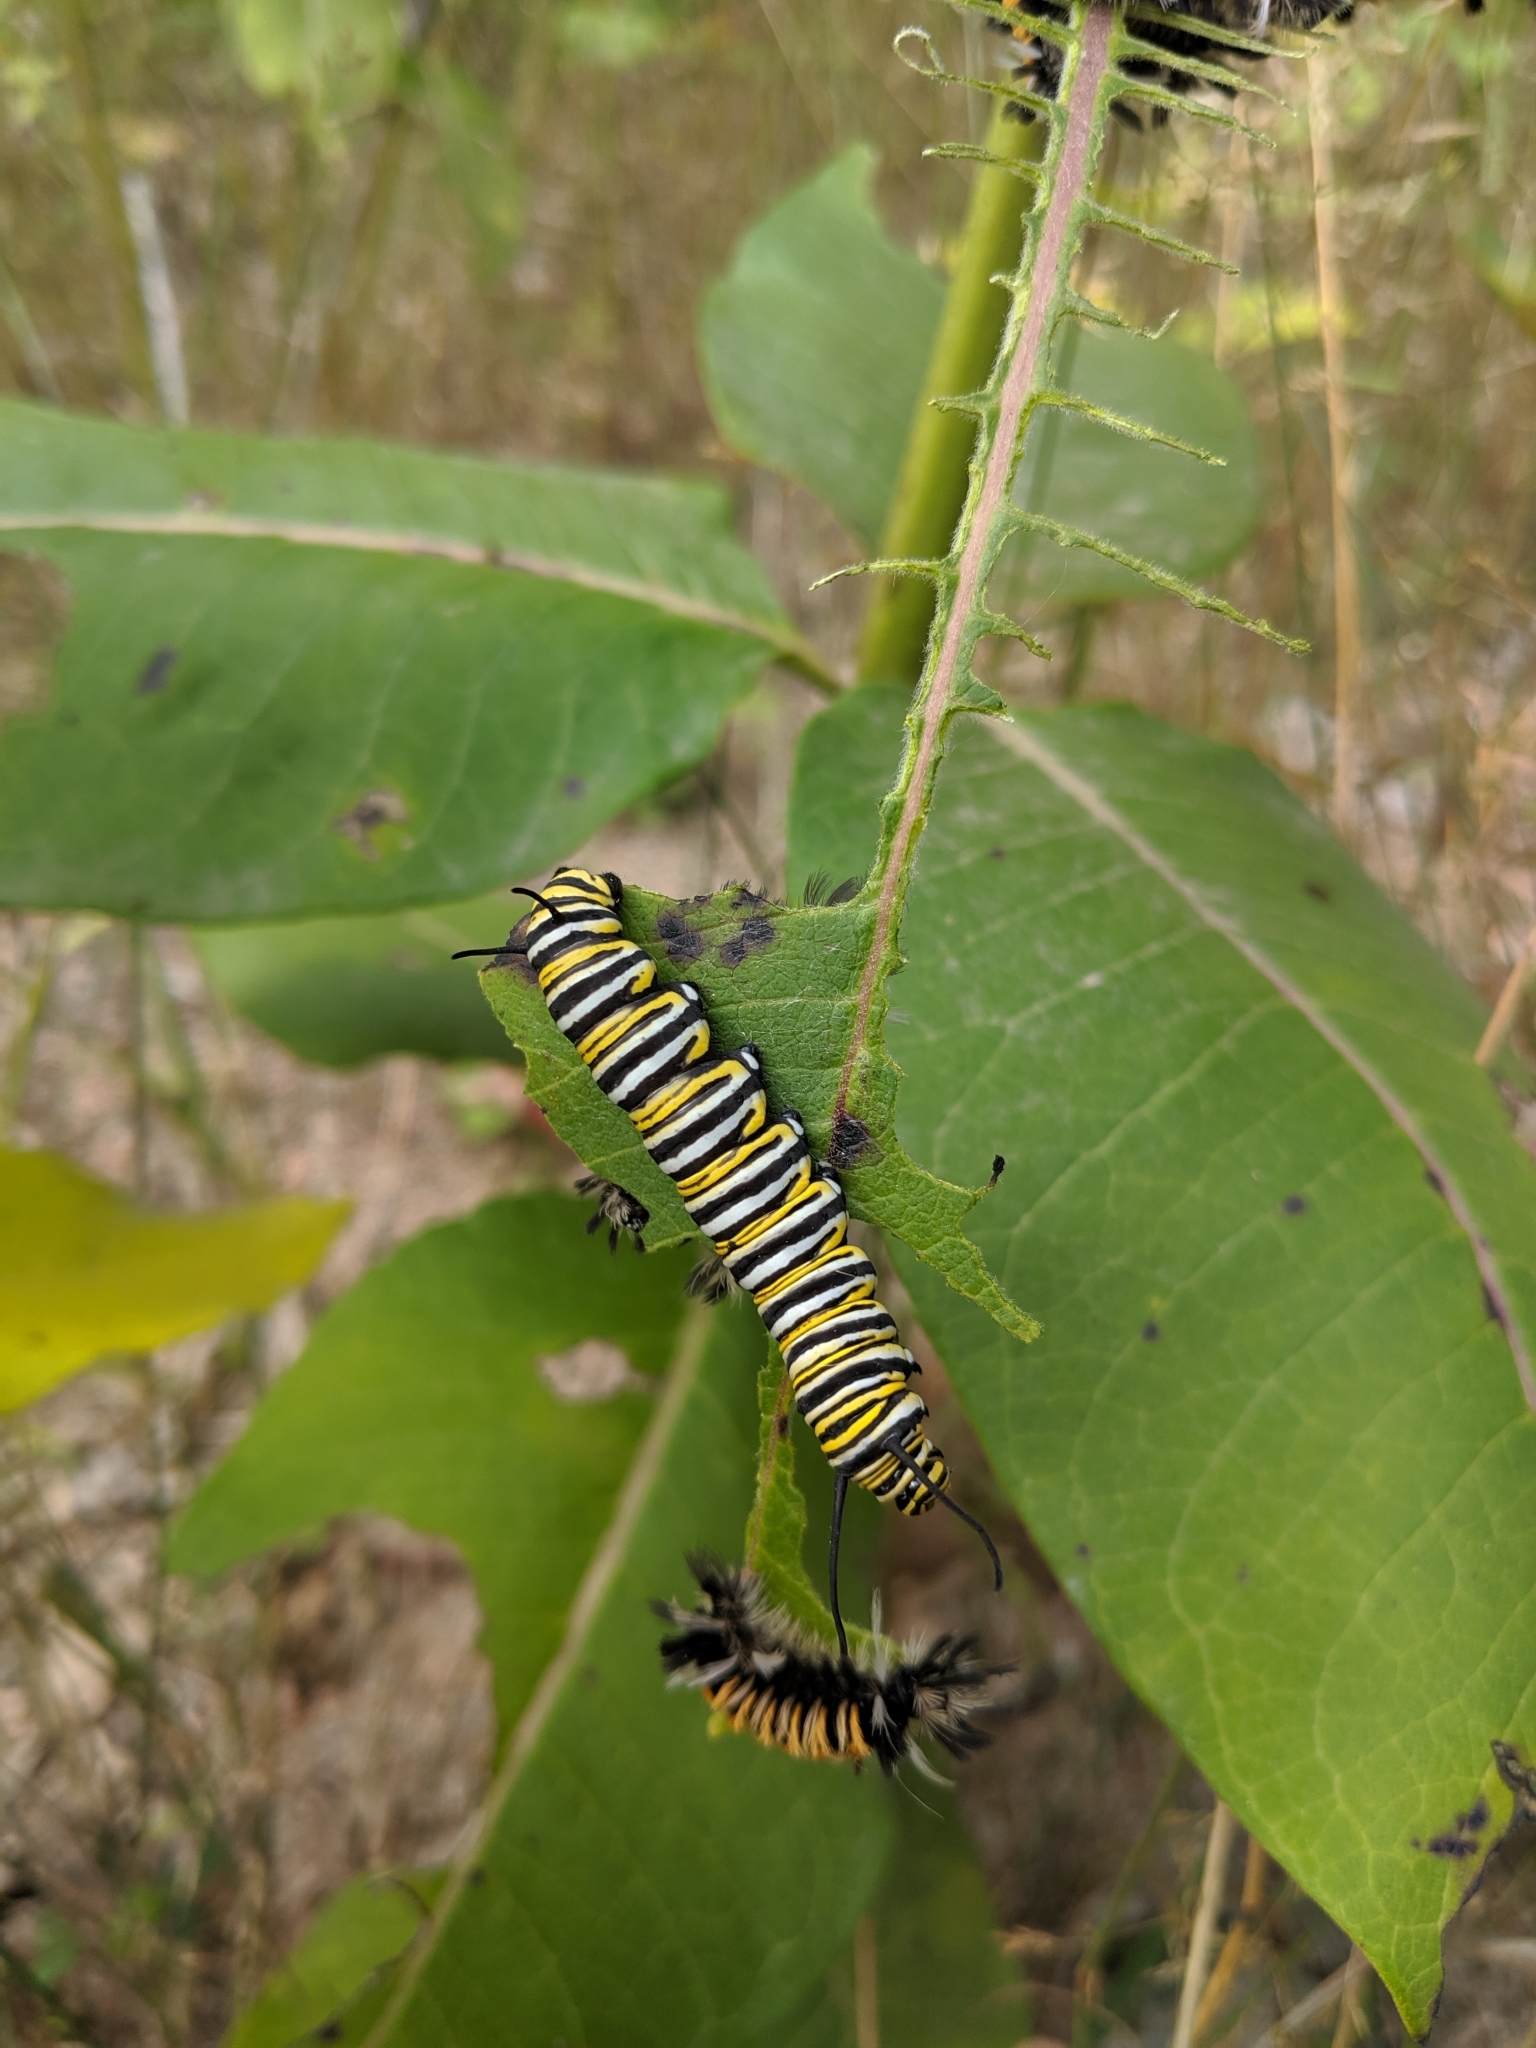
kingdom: Animalia
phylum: Arthropoda
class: Insecta
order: Lepidoptera
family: Nymphalidae
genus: Danaus
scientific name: Danaus plexippus
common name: Monarch
